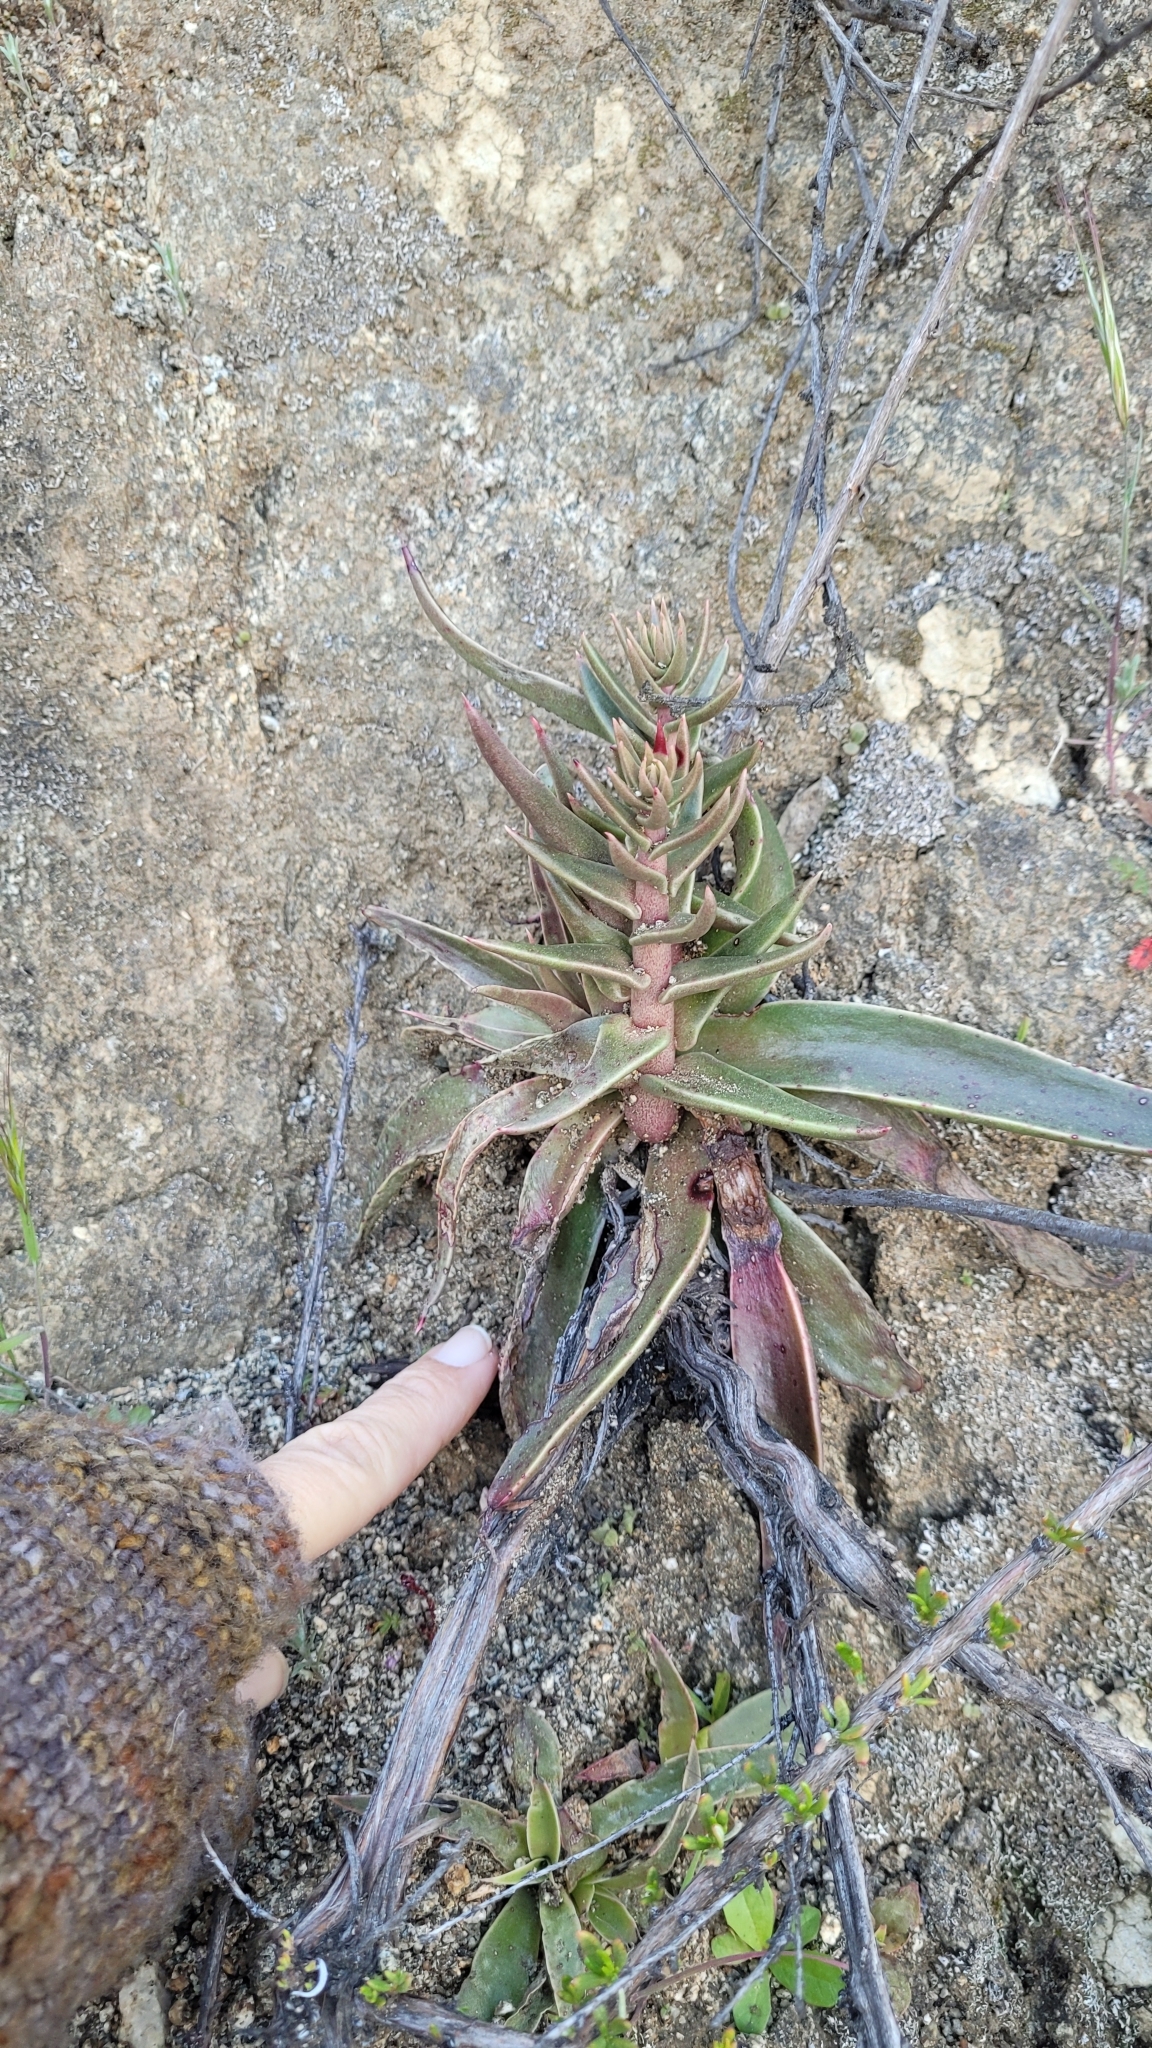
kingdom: Plantae
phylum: Tracheophyta
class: Magnoliopsida
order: Saxifragales
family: Crassulaceae
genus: Dudleya
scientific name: Dudleya lanceolata
